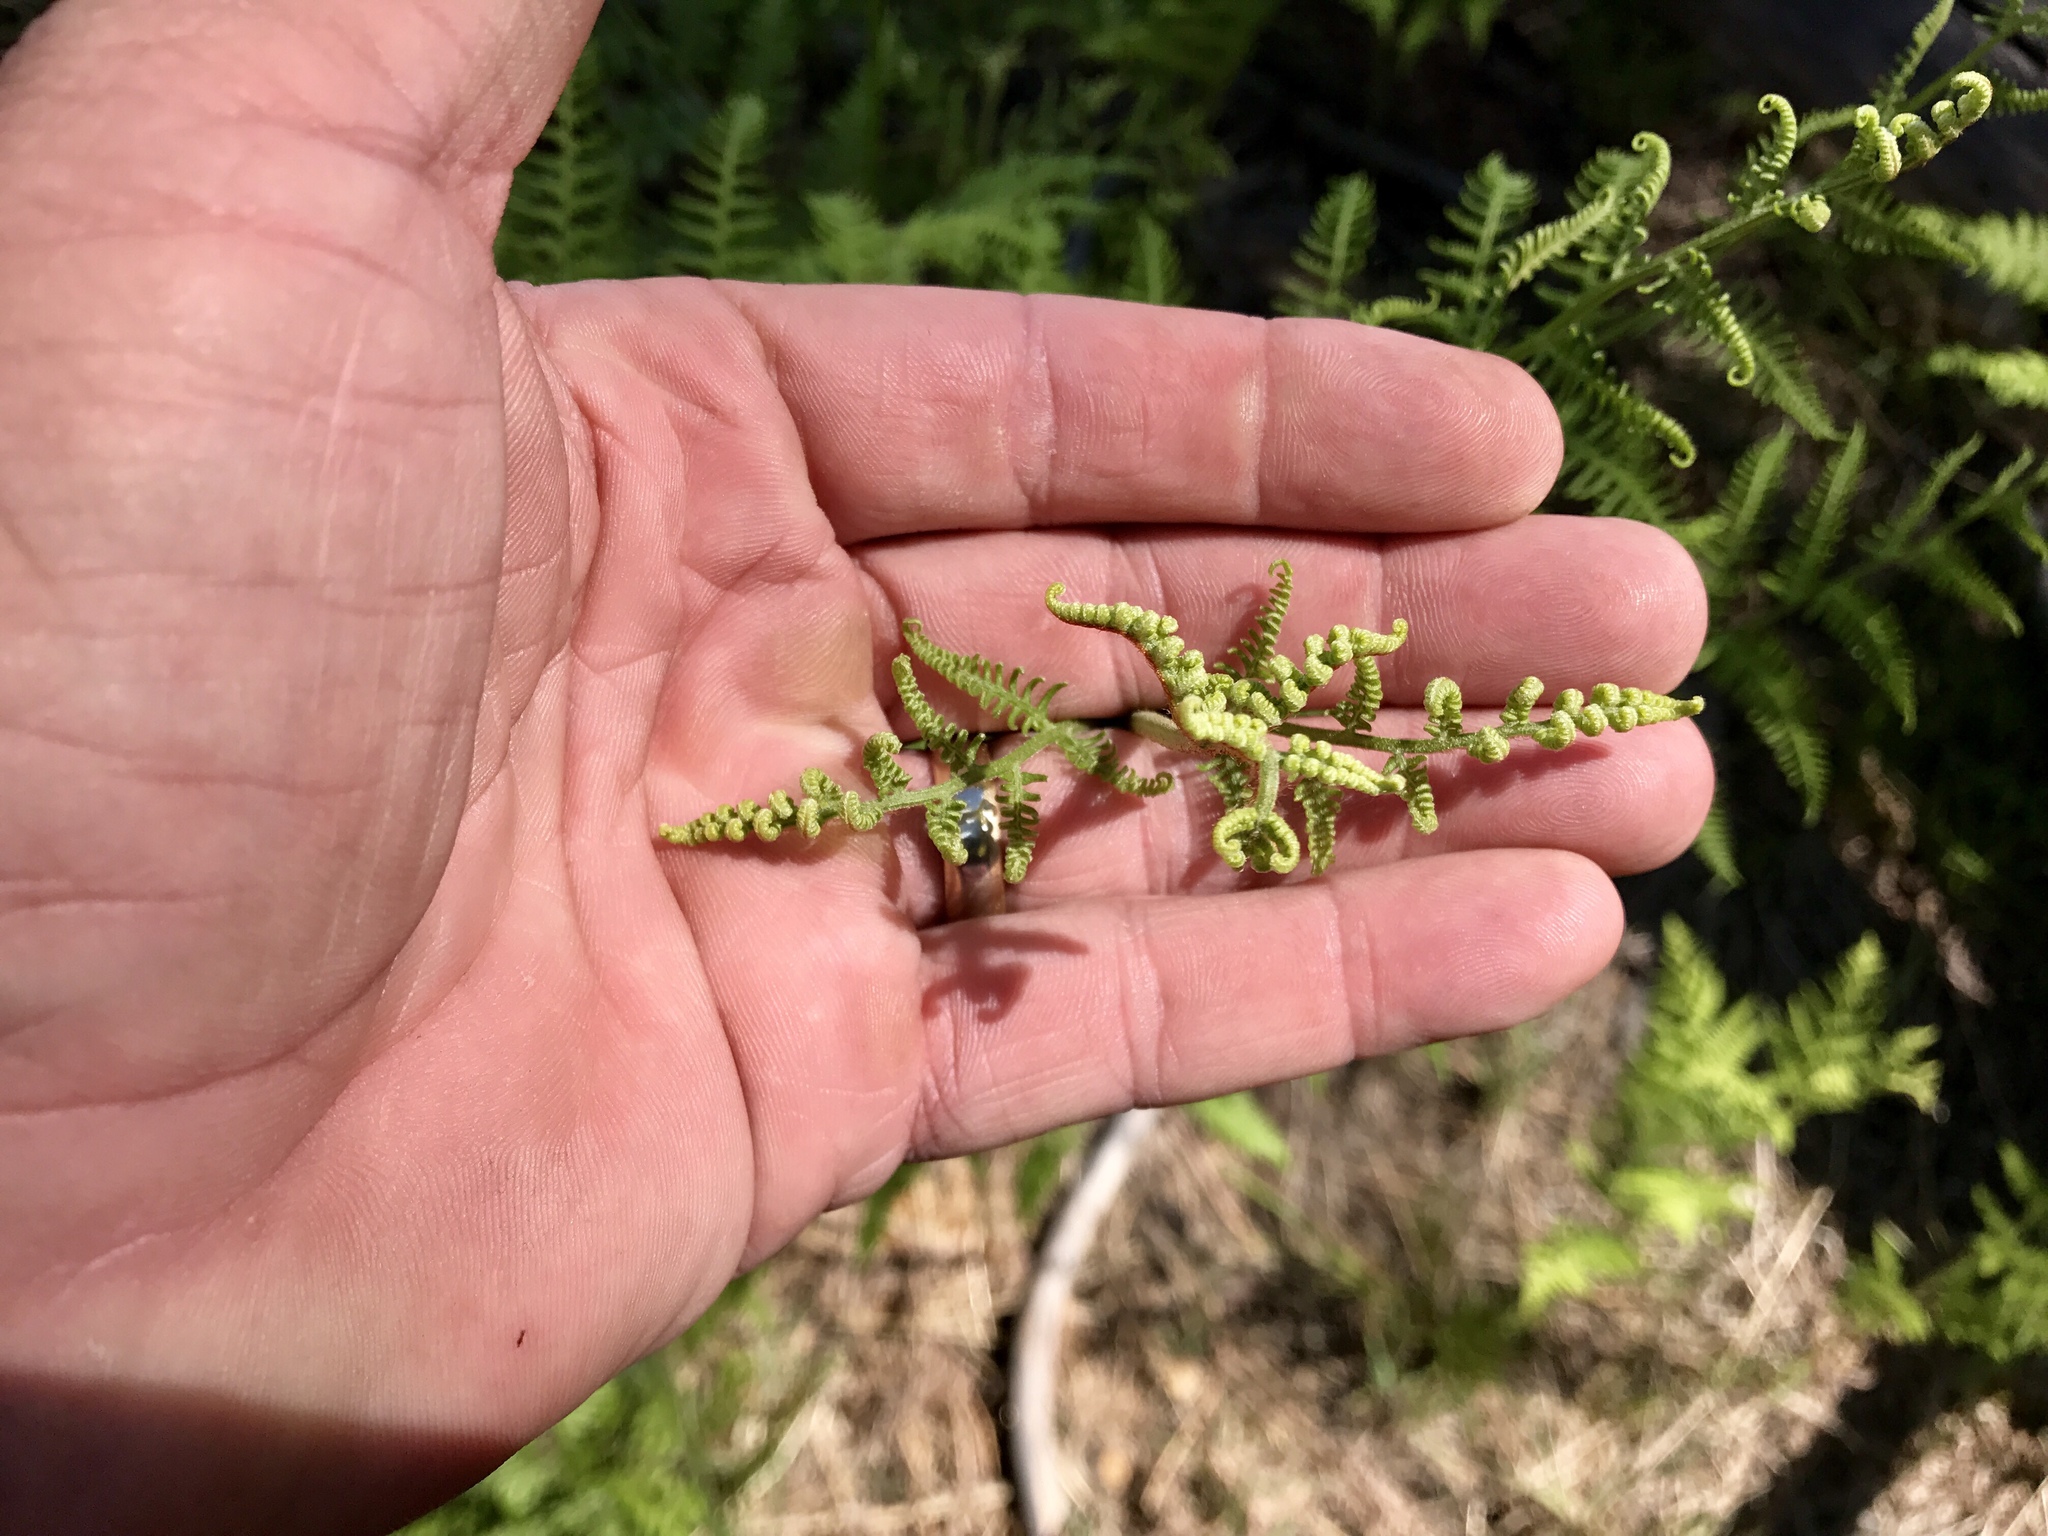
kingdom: Plantae
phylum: Tracheophyta
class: Polypodiopsida
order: Polypodiales
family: Dennstaedtiaceae
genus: Pteridium
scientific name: Pteridium aquilinum
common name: Bracken
